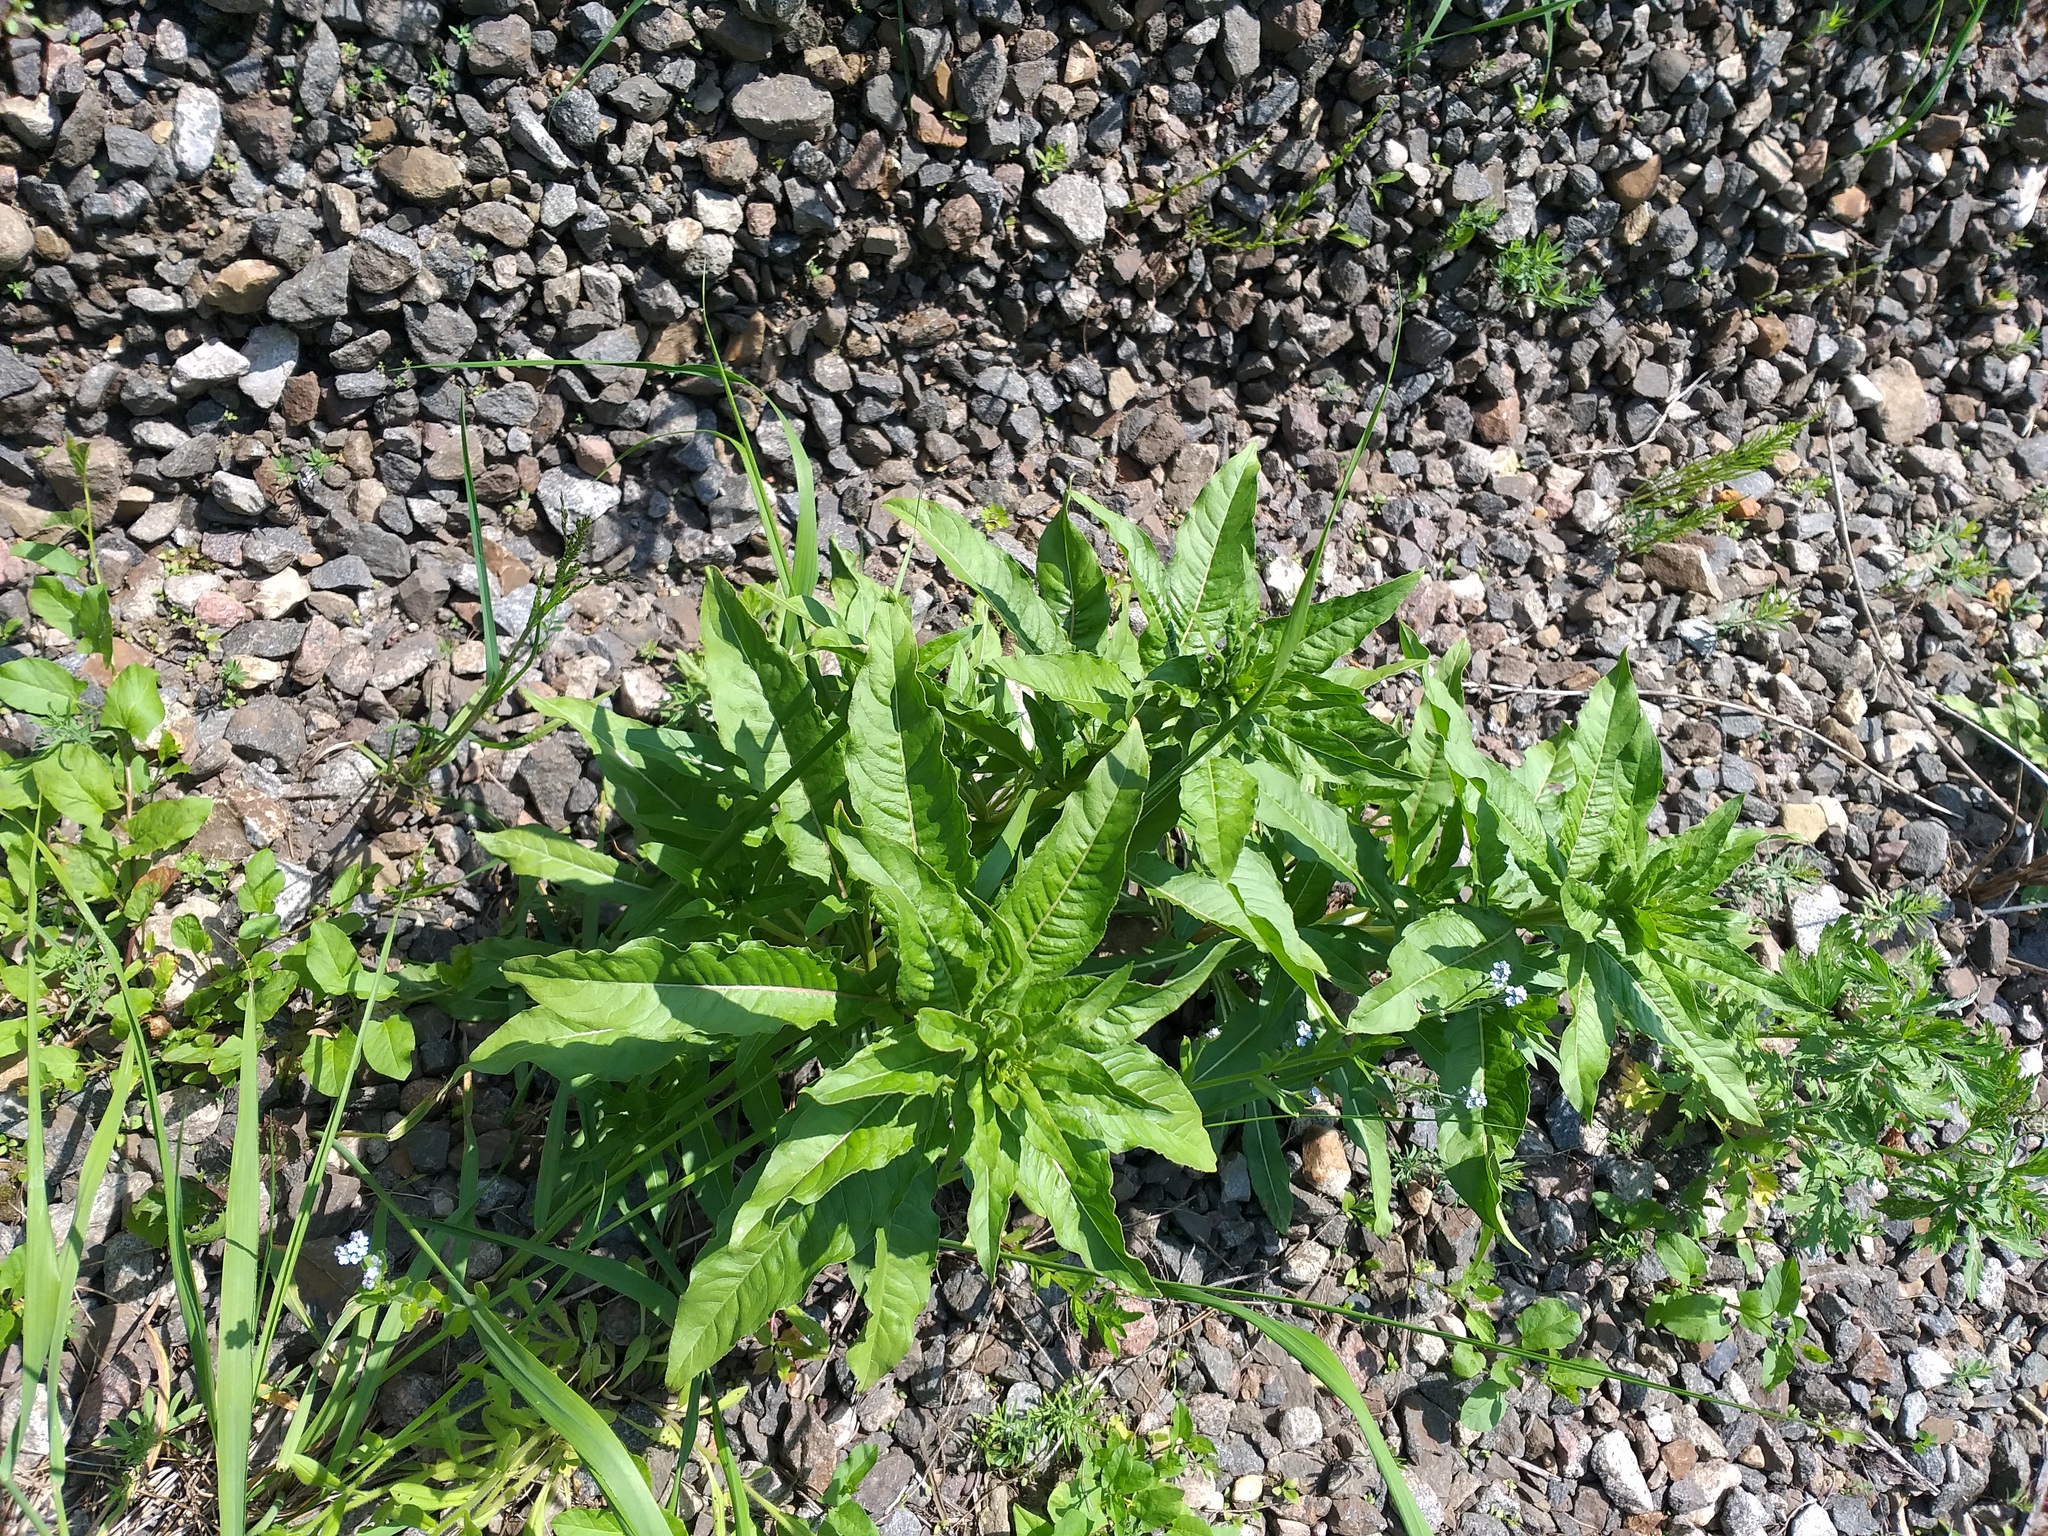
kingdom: Plantae
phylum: Tracheophyta
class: Magnoliopsida
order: Myrtales
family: Onagraceae
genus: Oenothera
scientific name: Oenothera rubricaulis
